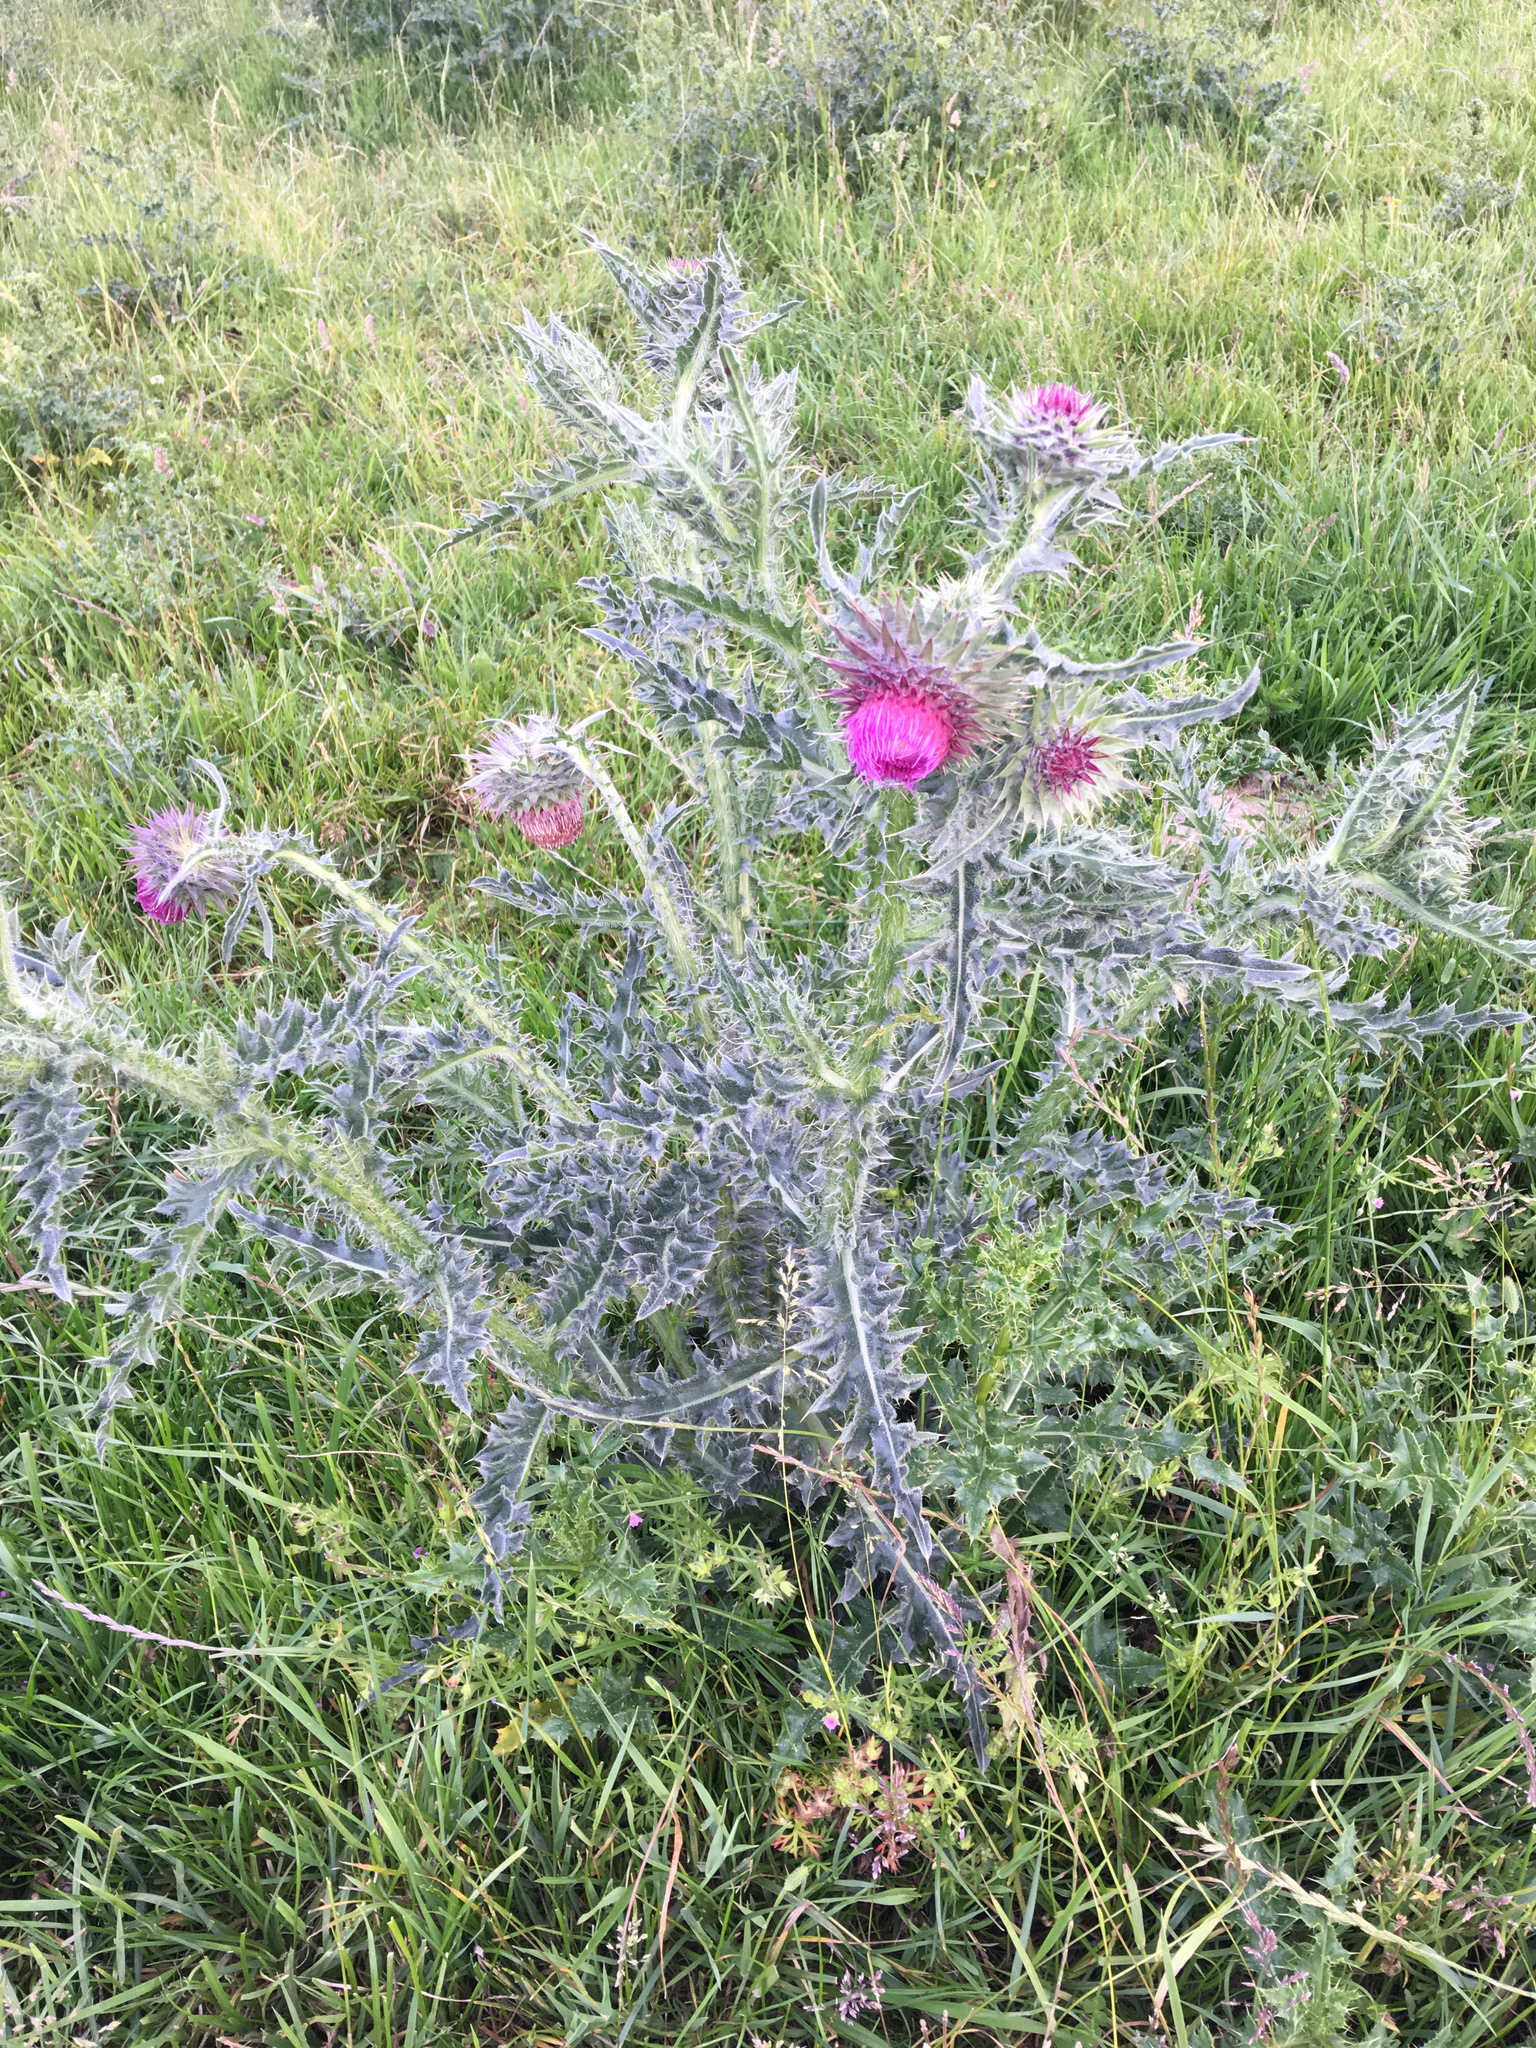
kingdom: Plantae
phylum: Tracheophyta
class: Magnoliopsida
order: Asterales
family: Asteraceae
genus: Carduus
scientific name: Carduus nutans
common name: Musk thistle
